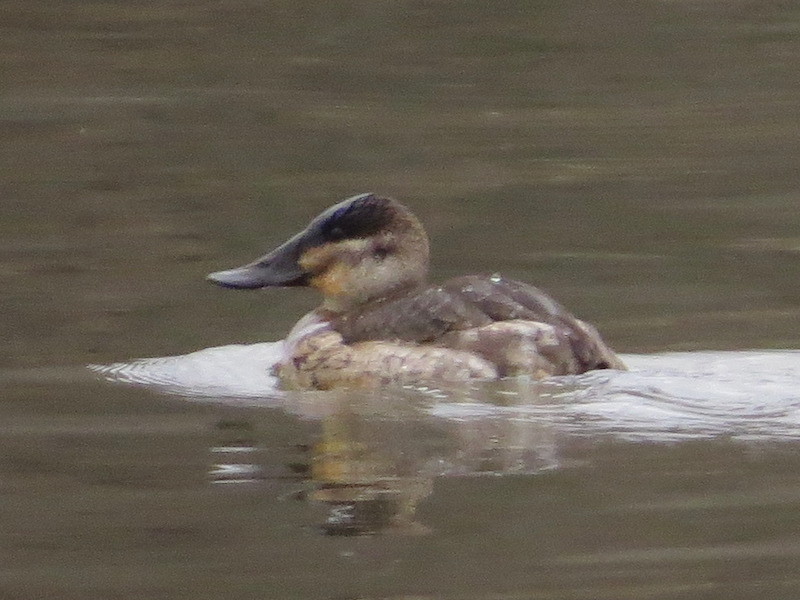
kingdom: Animalia
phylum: Chordata
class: Aves
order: Anseriformes
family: Anatidae
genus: Oxyura
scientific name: Oxyura jamaicensis
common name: Ruddy duck
